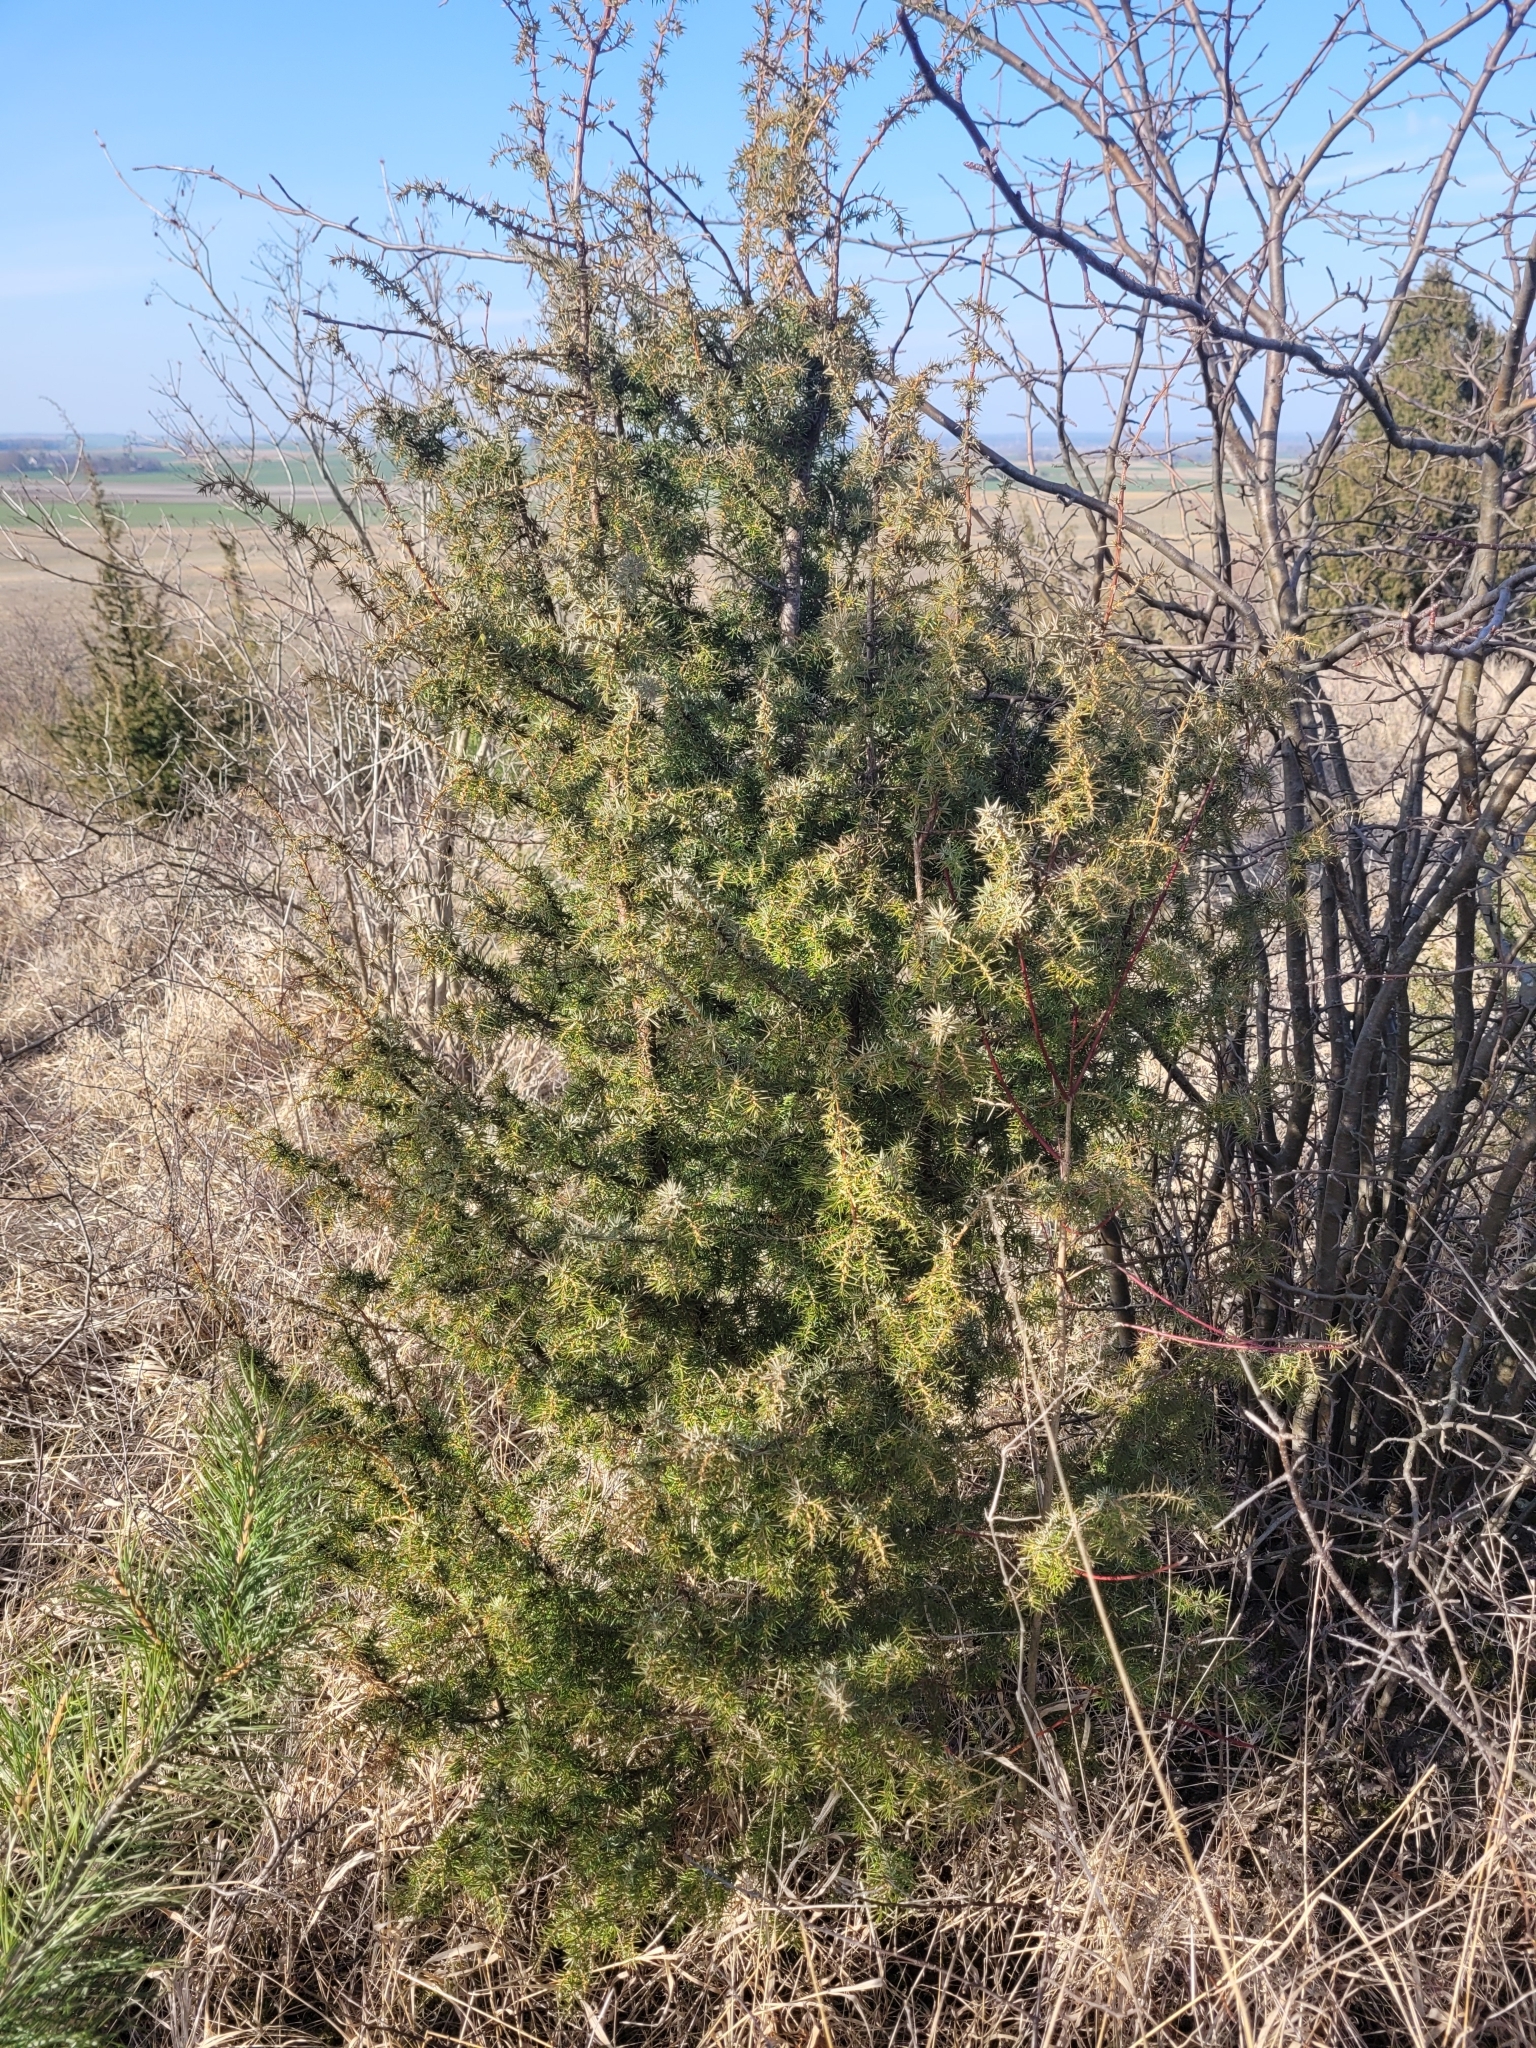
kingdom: Plantae
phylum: Tracheophyta
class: Pinopsida
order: Pinales
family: Cupressaceae
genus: Juniperus
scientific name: Juniperus communis
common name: Common juniper
